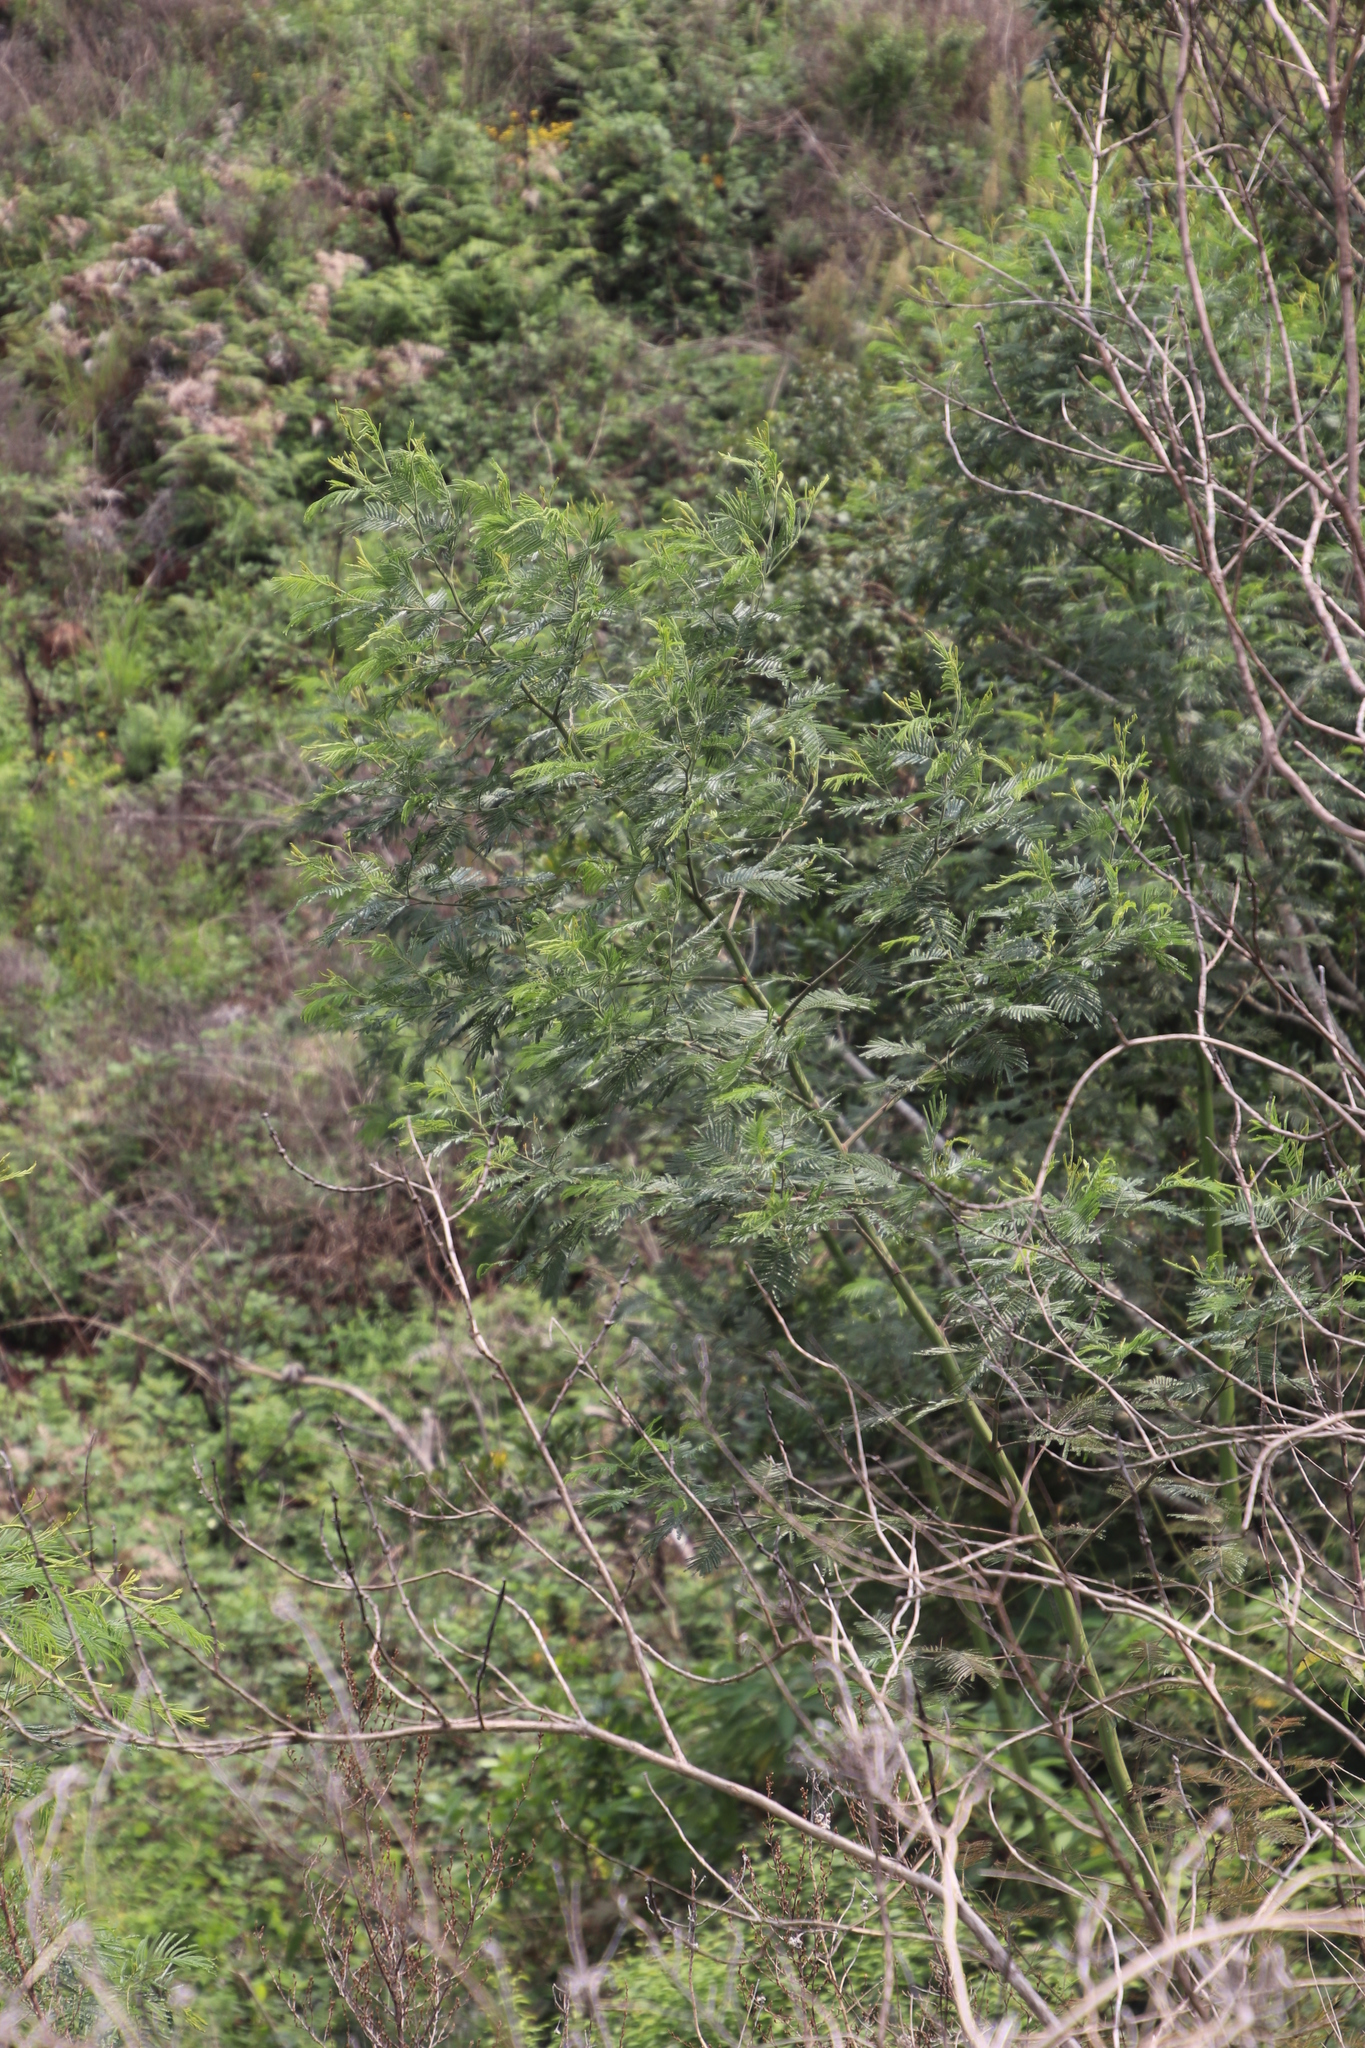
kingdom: Plantae
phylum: Tracheophyta
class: Magnoliopsida
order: Fabales
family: Fabaceae
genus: Acacia
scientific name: Acacia dealbata
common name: Silver wattle
